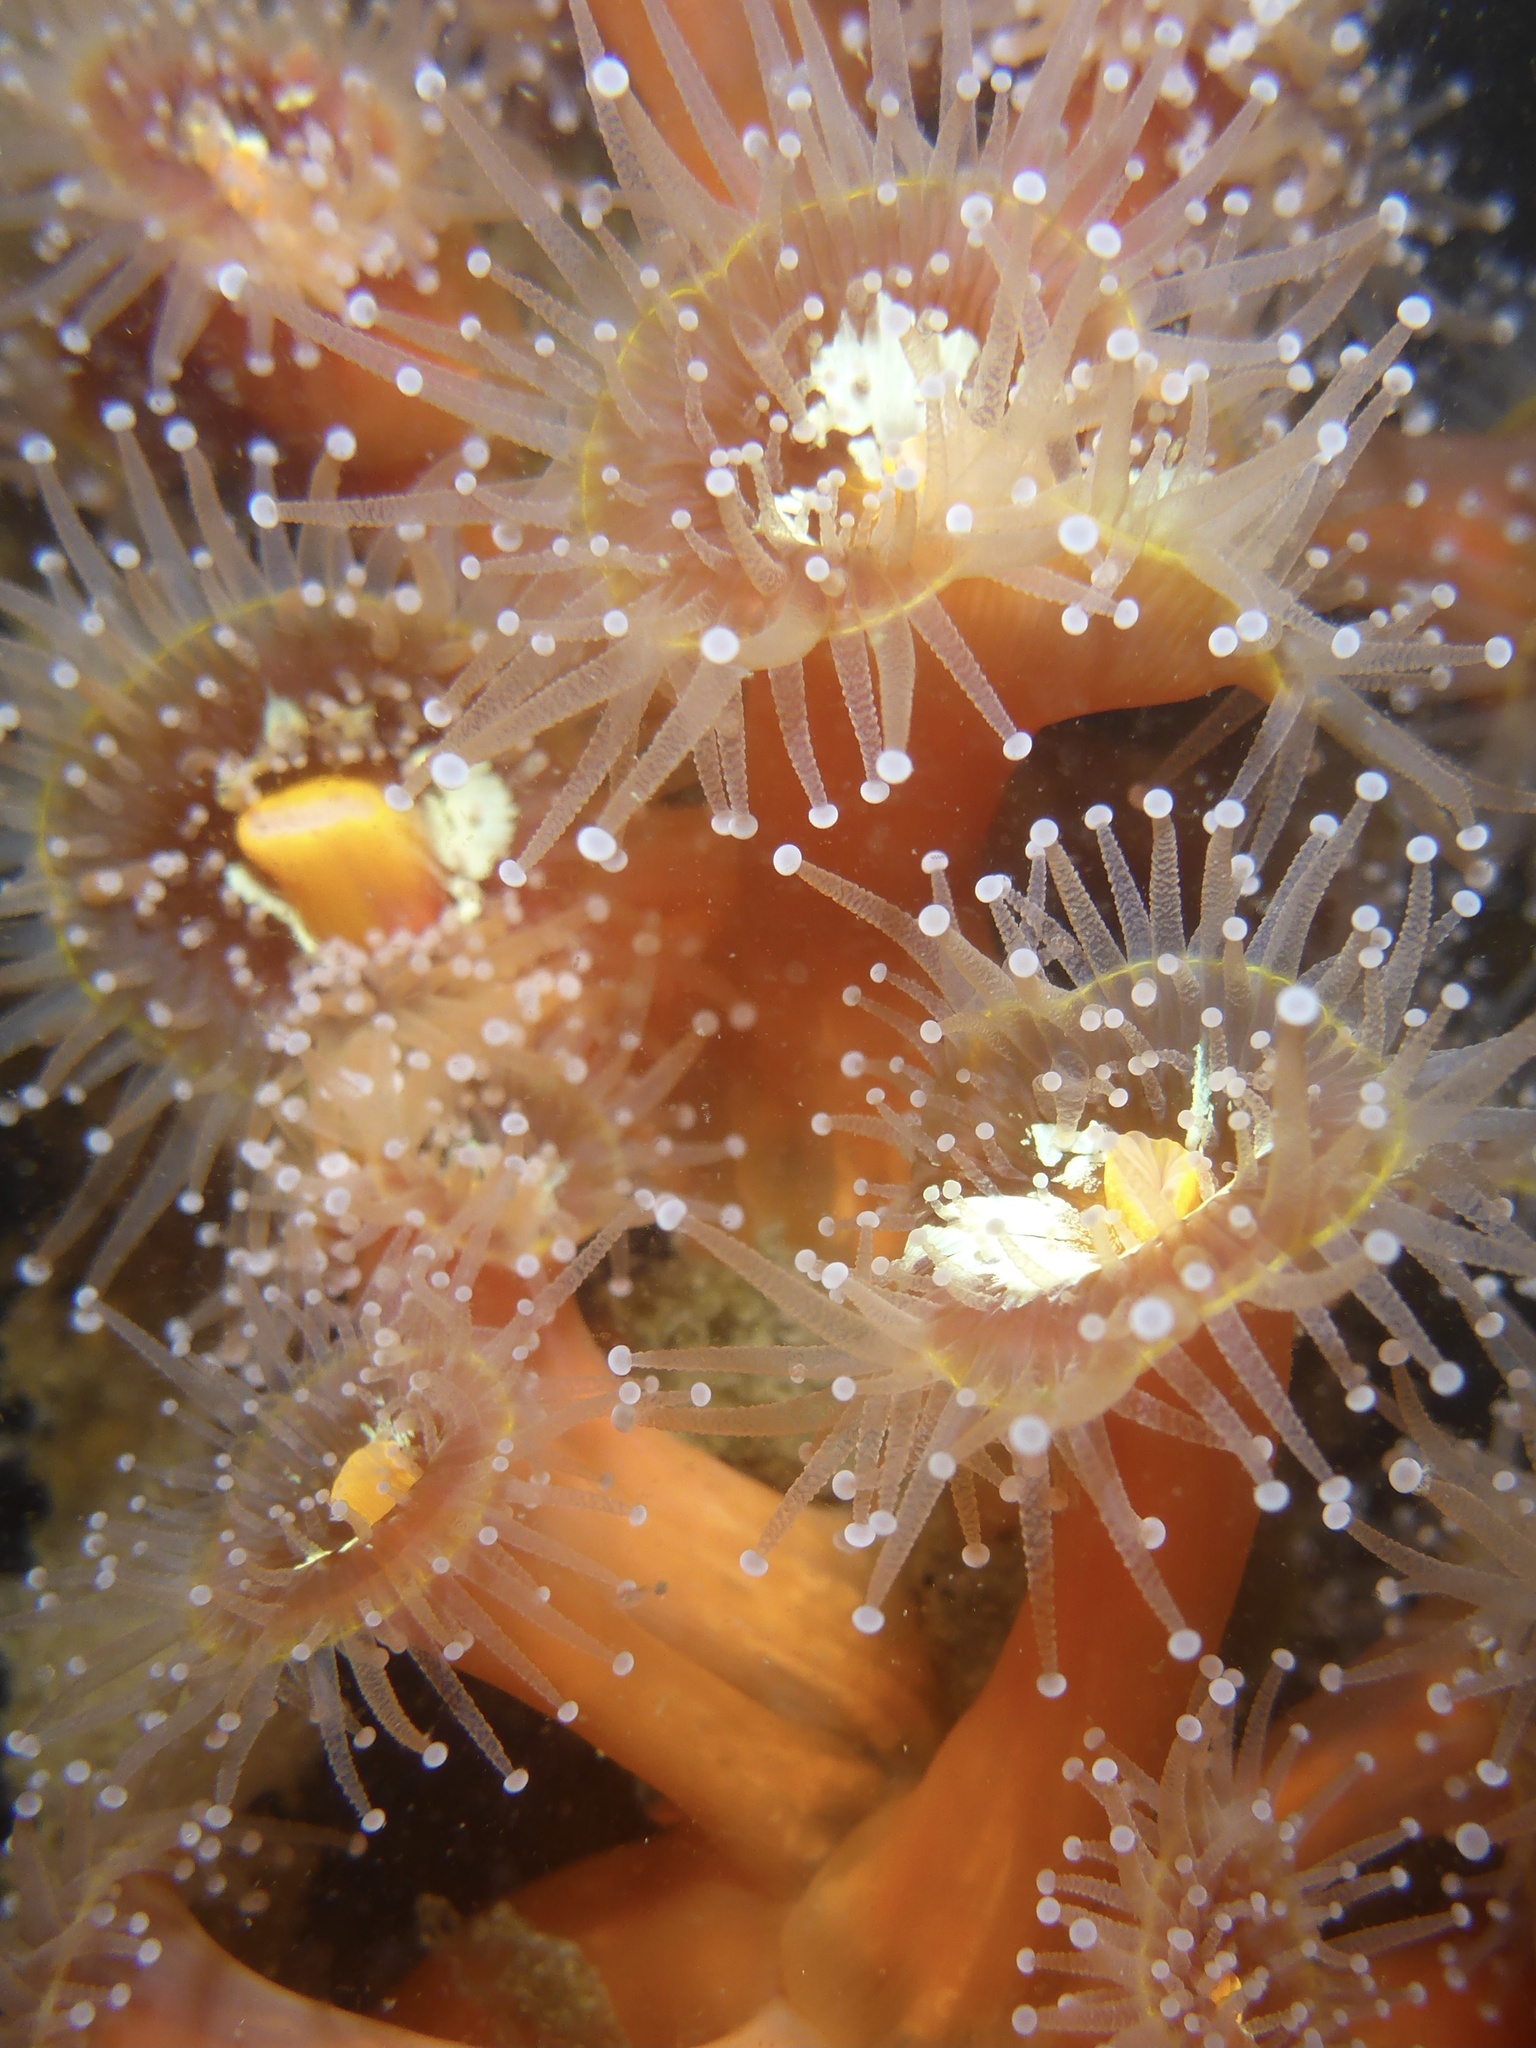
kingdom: Animalia
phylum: Cnidaria
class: Anthozoa
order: Corallimorpharia
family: Corallimorphidae
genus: Corynactis
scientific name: Corynactis californica
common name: Strawberry corallimorpharian
